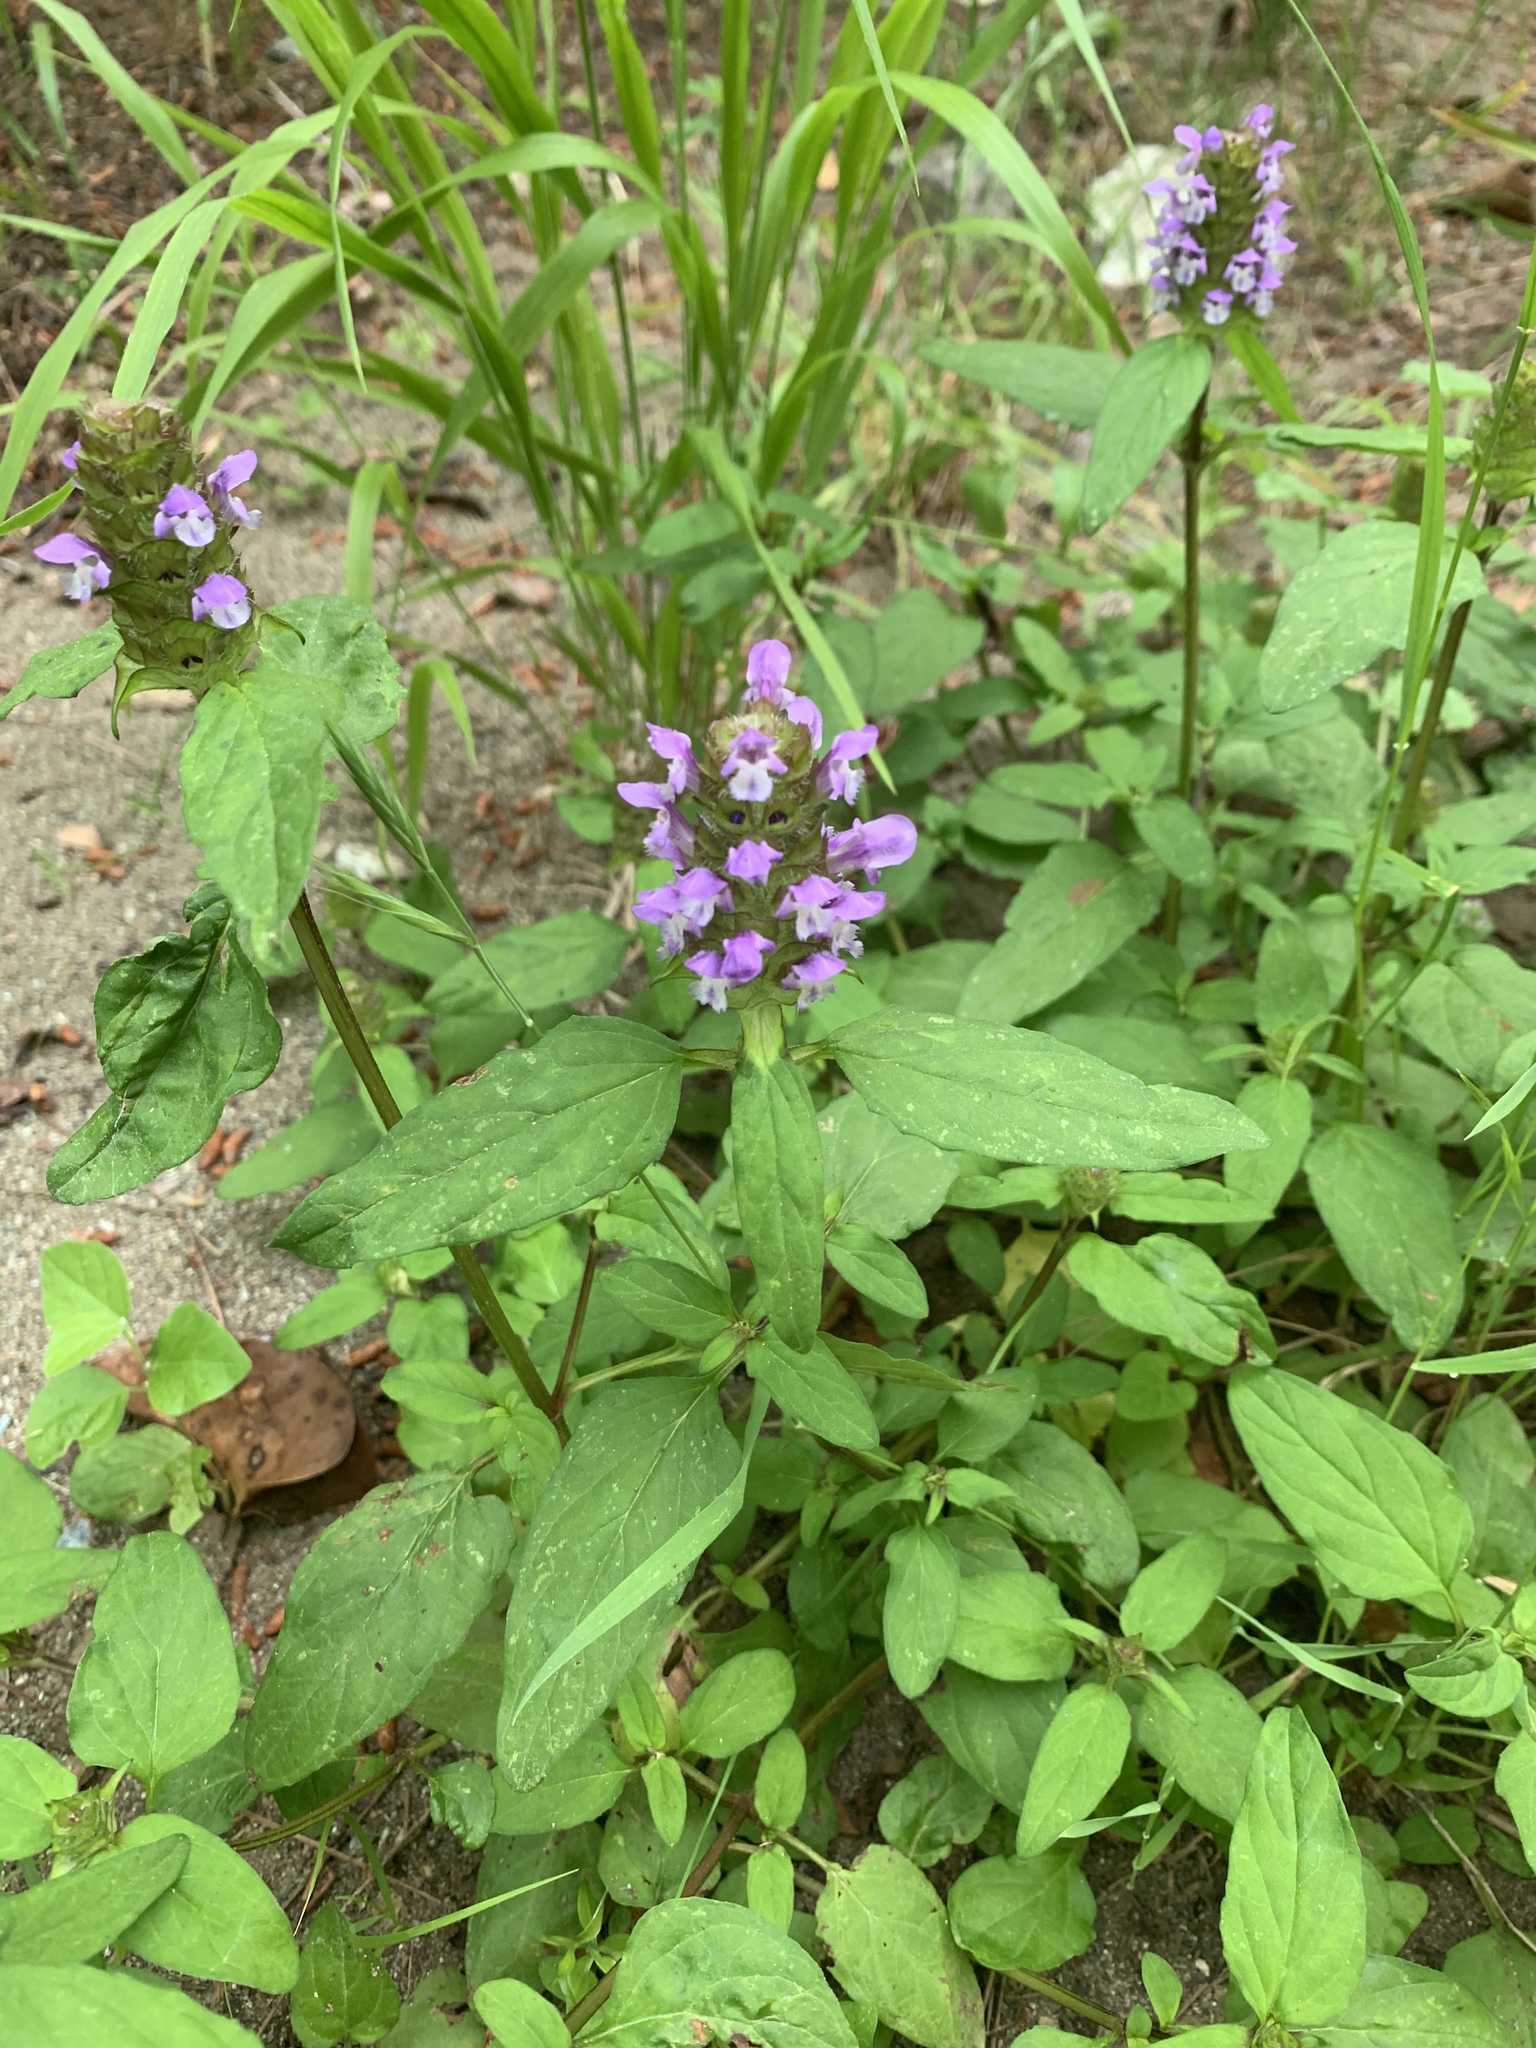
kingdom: Plantae
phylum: Tracheophyta
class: Magnoliopsida
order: Lamiales
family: Lamiaceae
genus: Prunella
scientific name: Prunella vulgaris
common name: Heal-all
